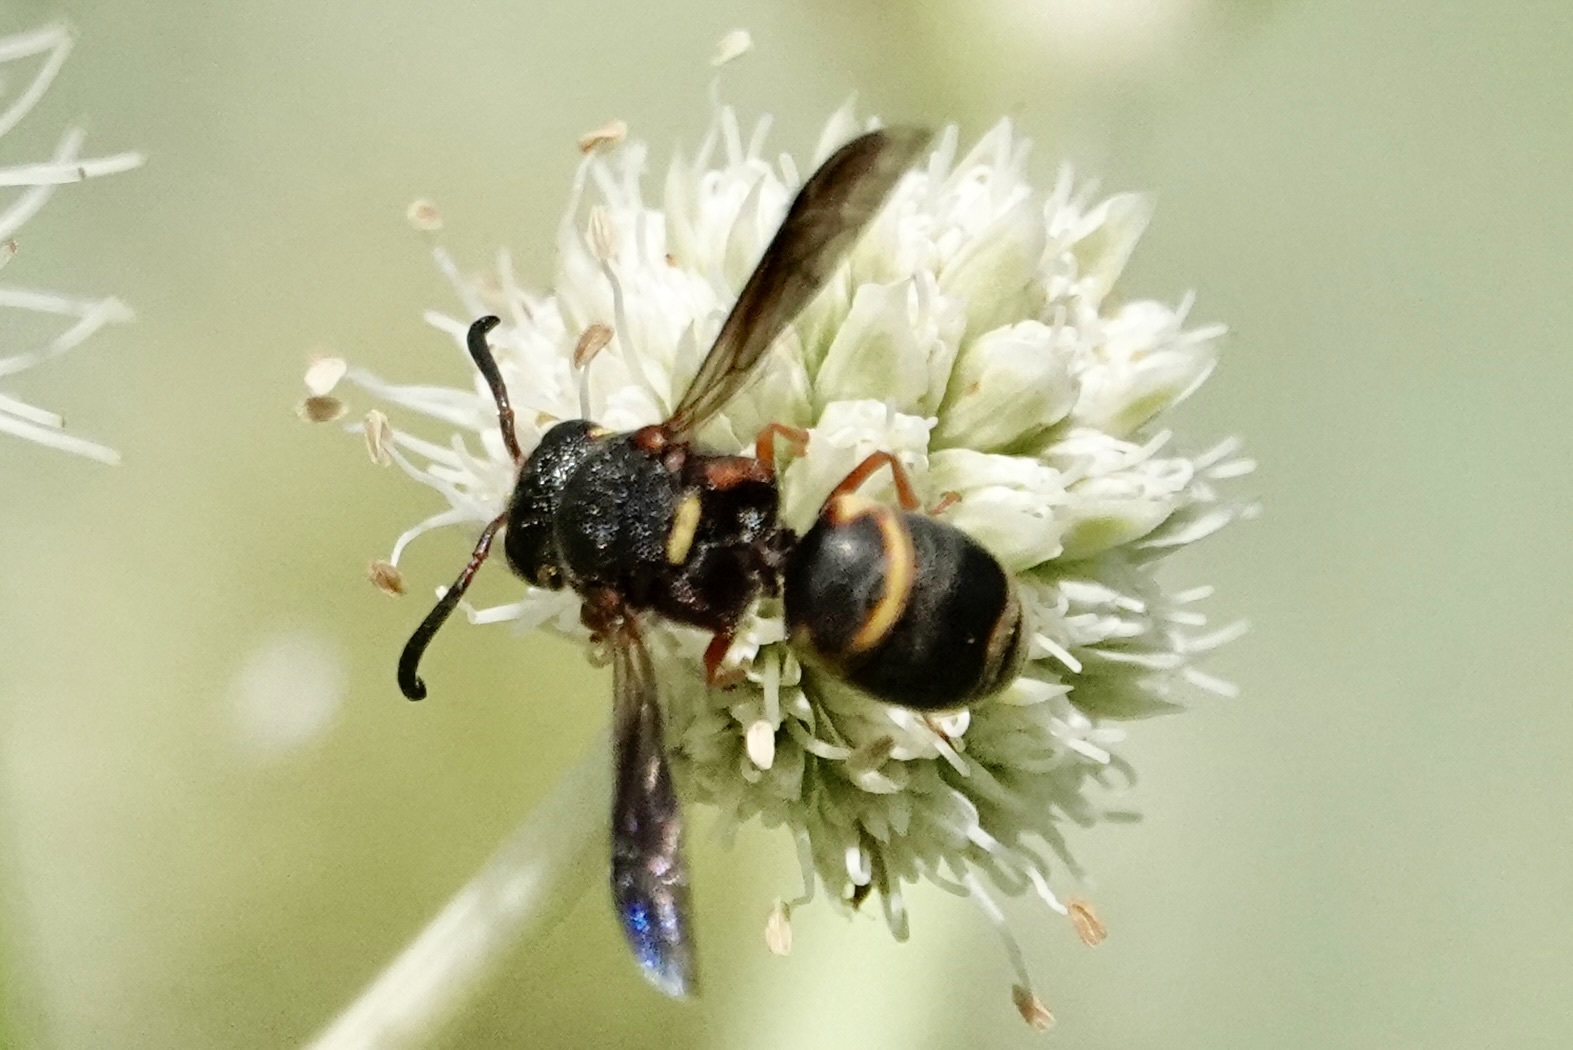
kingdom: Animalia
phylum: Arthropoda
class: Insecta
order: Hymenoptera
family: Eumenidae
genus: Euodynerus
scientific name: Euodynerus hidalgo
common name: Wasp
